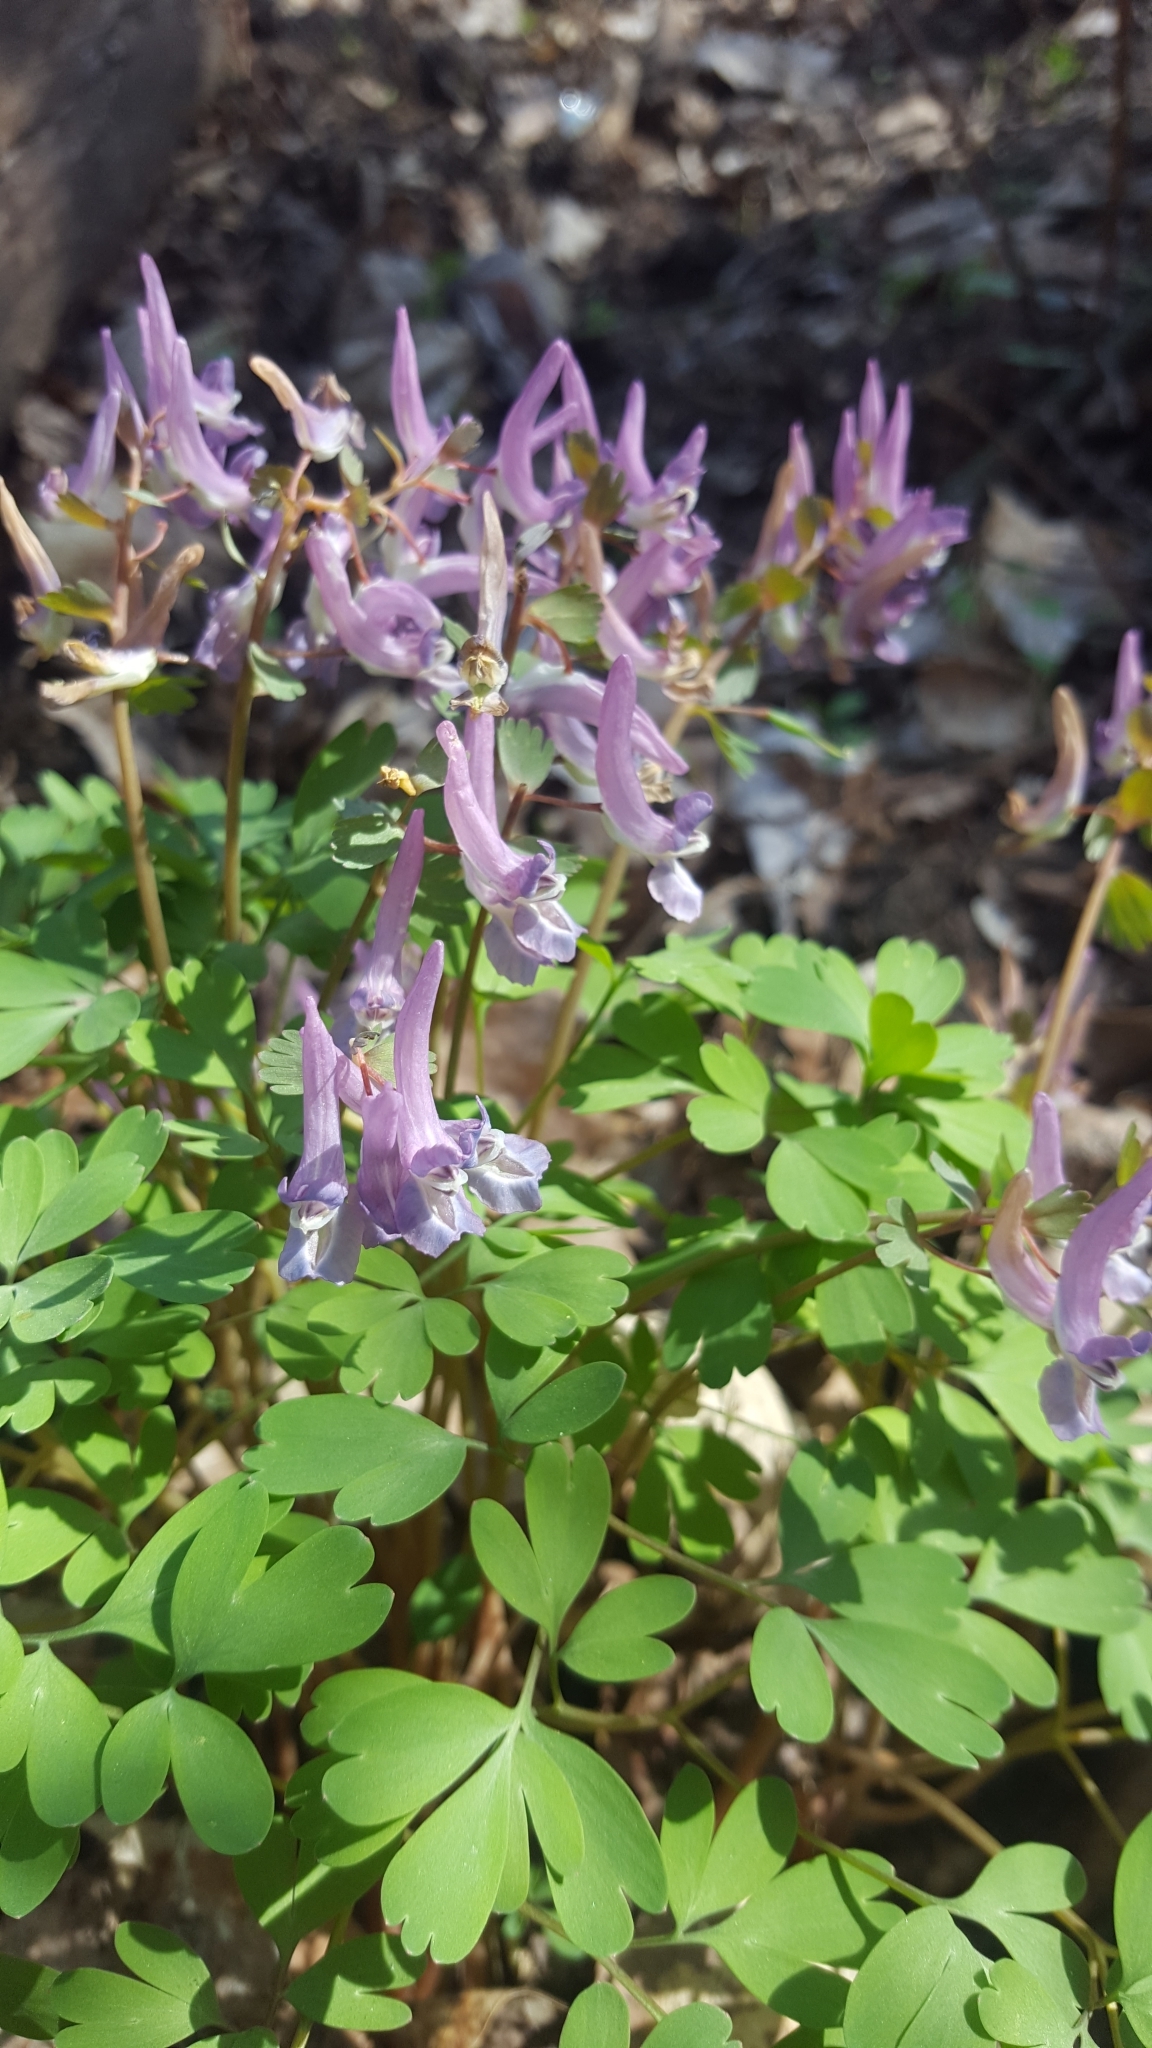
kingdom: Plantae
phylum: Tracheophyta
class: Magnoliopsida
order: Ranunculales
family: Papaveraceae
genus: Corydalis
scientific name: Corydalis solida
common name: Bird-in-a-bush
